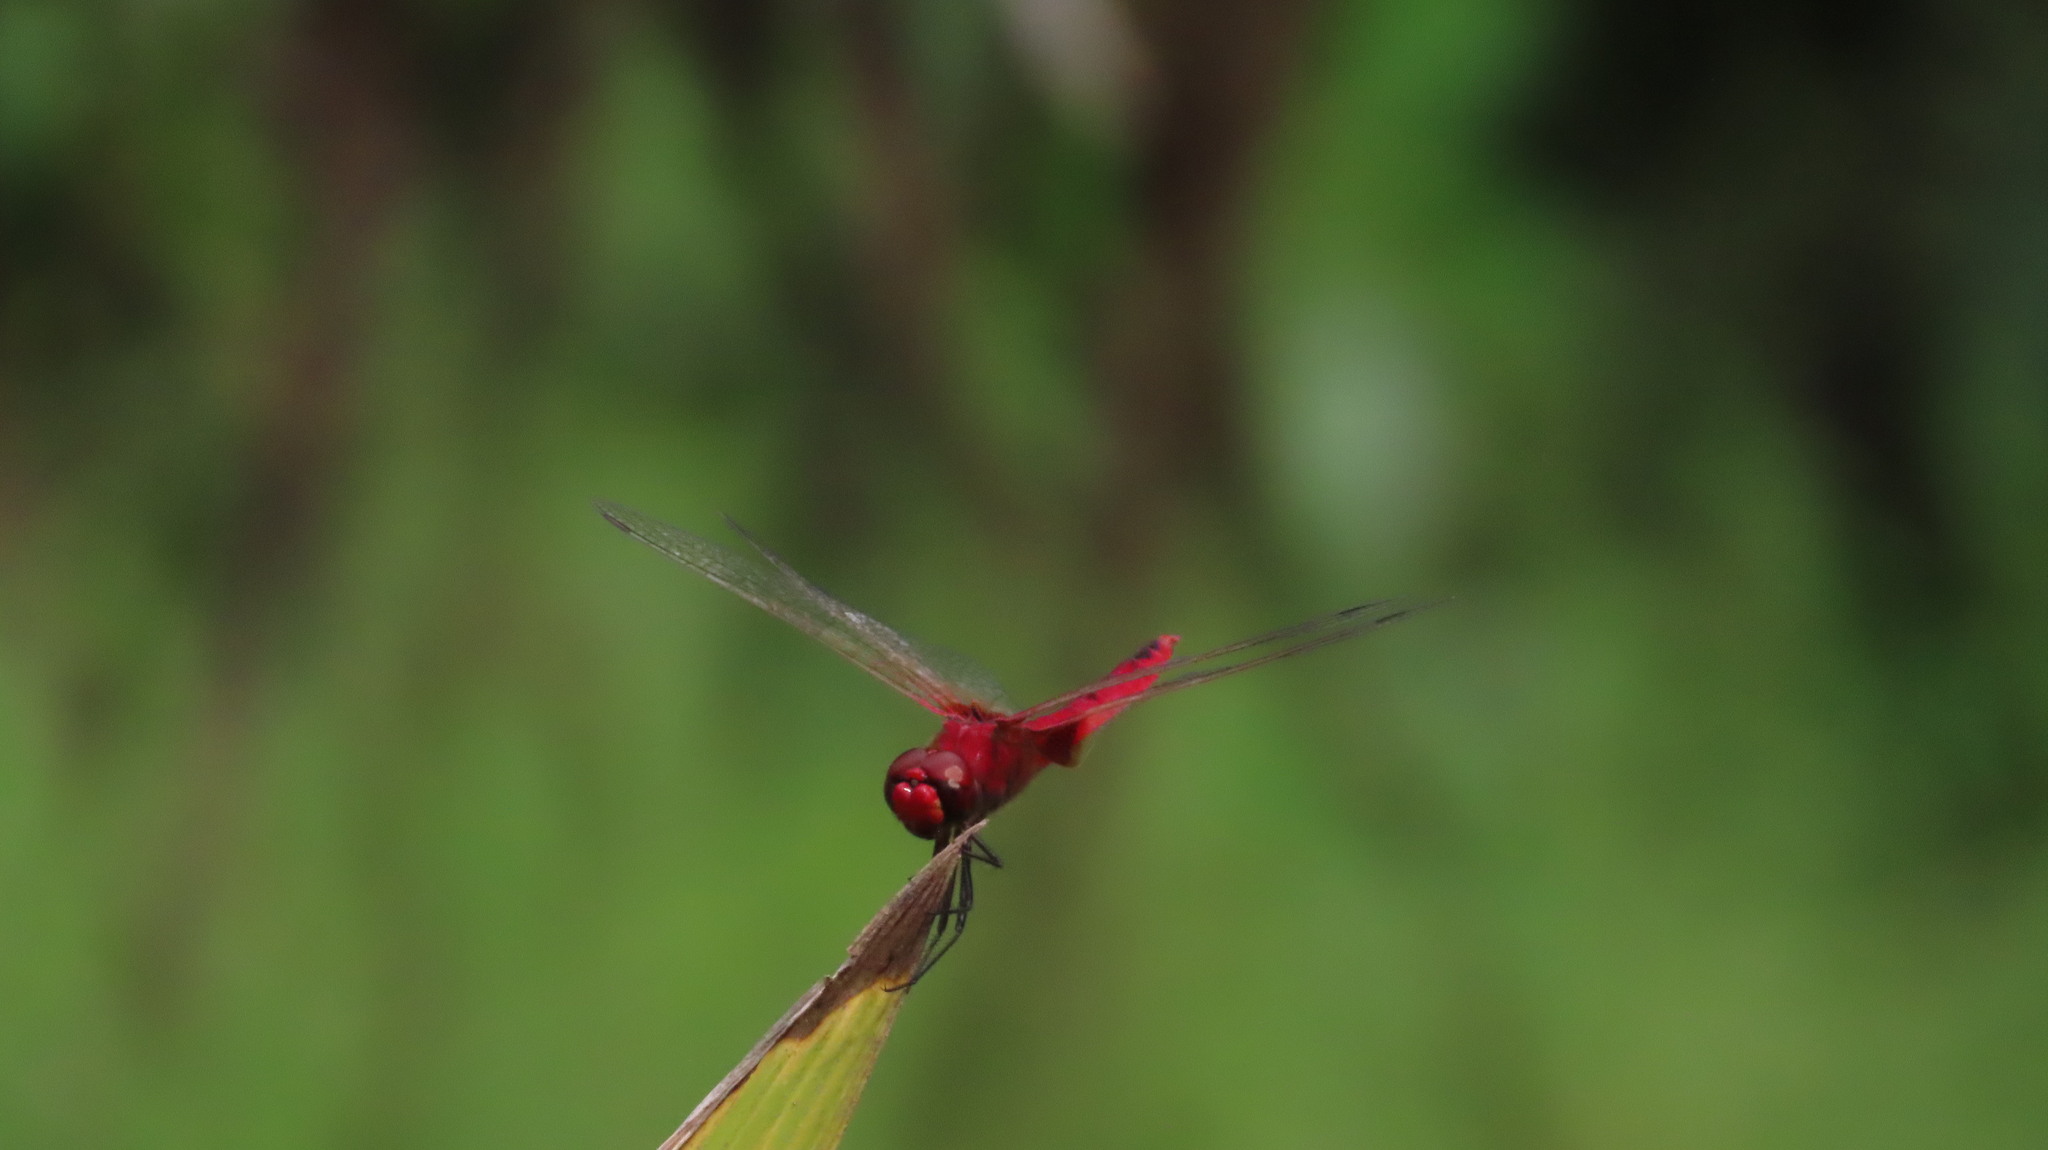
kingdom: Animalia
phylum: Arthropoda
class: Insecta
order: Odonata
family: Libellulidae
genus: Urothemis
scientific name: Urothemis signata
